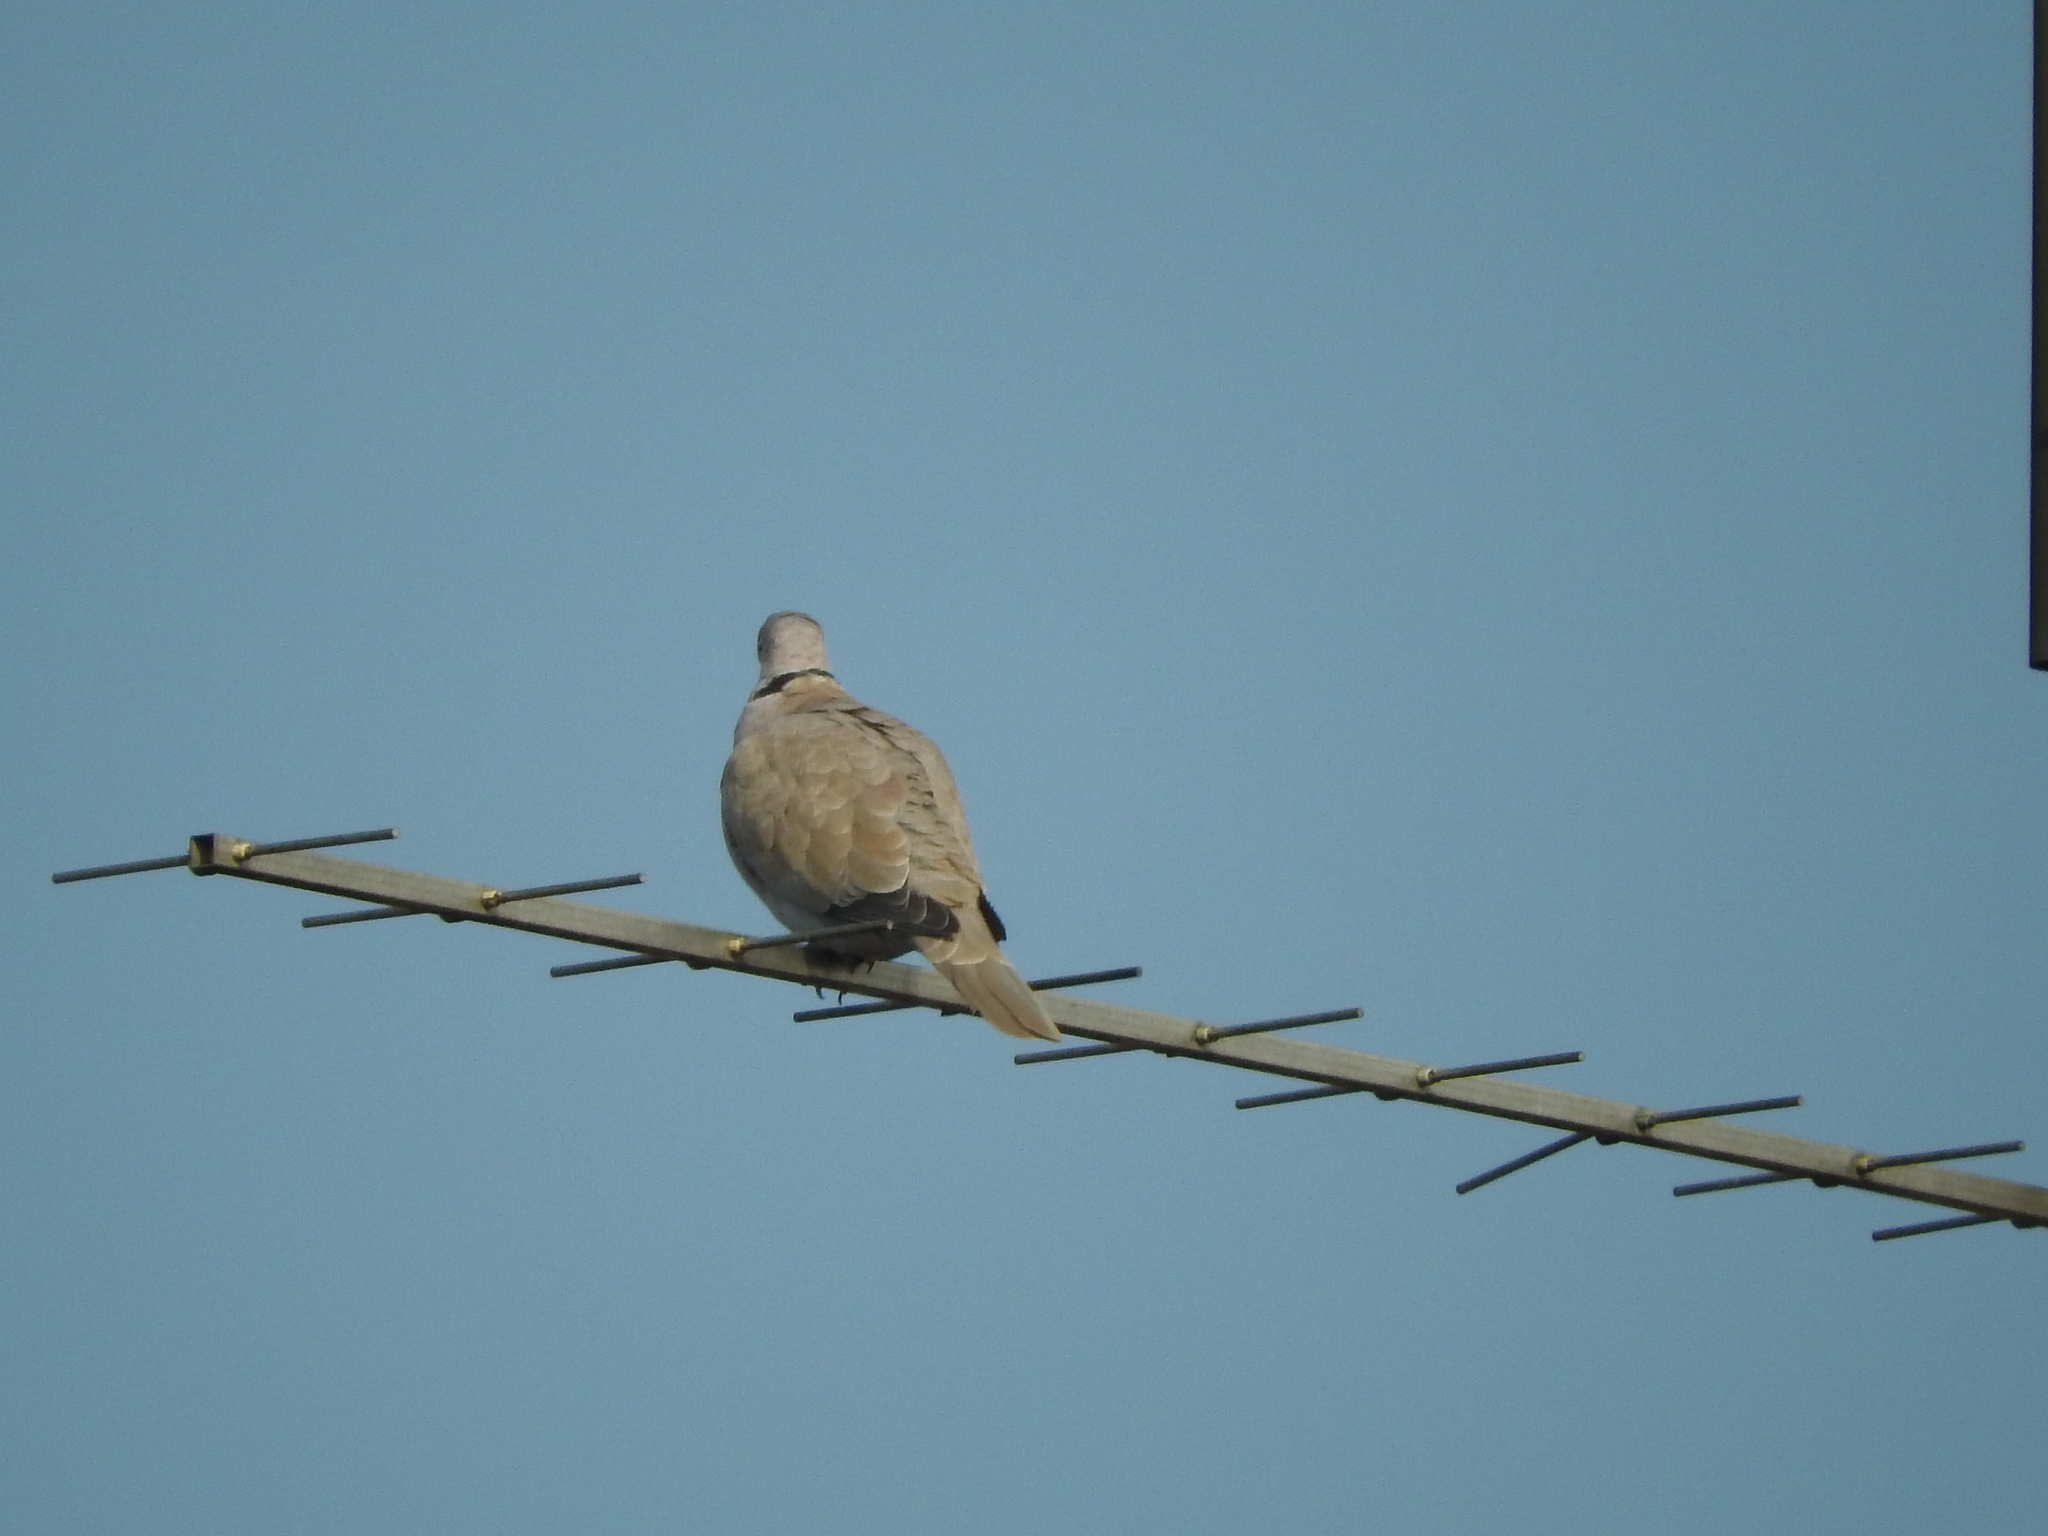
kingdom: Animalia
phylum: Chordata
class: Aves
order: Columbiformes
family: Columbidae
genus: Streptopelia
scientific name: Streptopelia decaocto
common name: Eurasian collared dove
